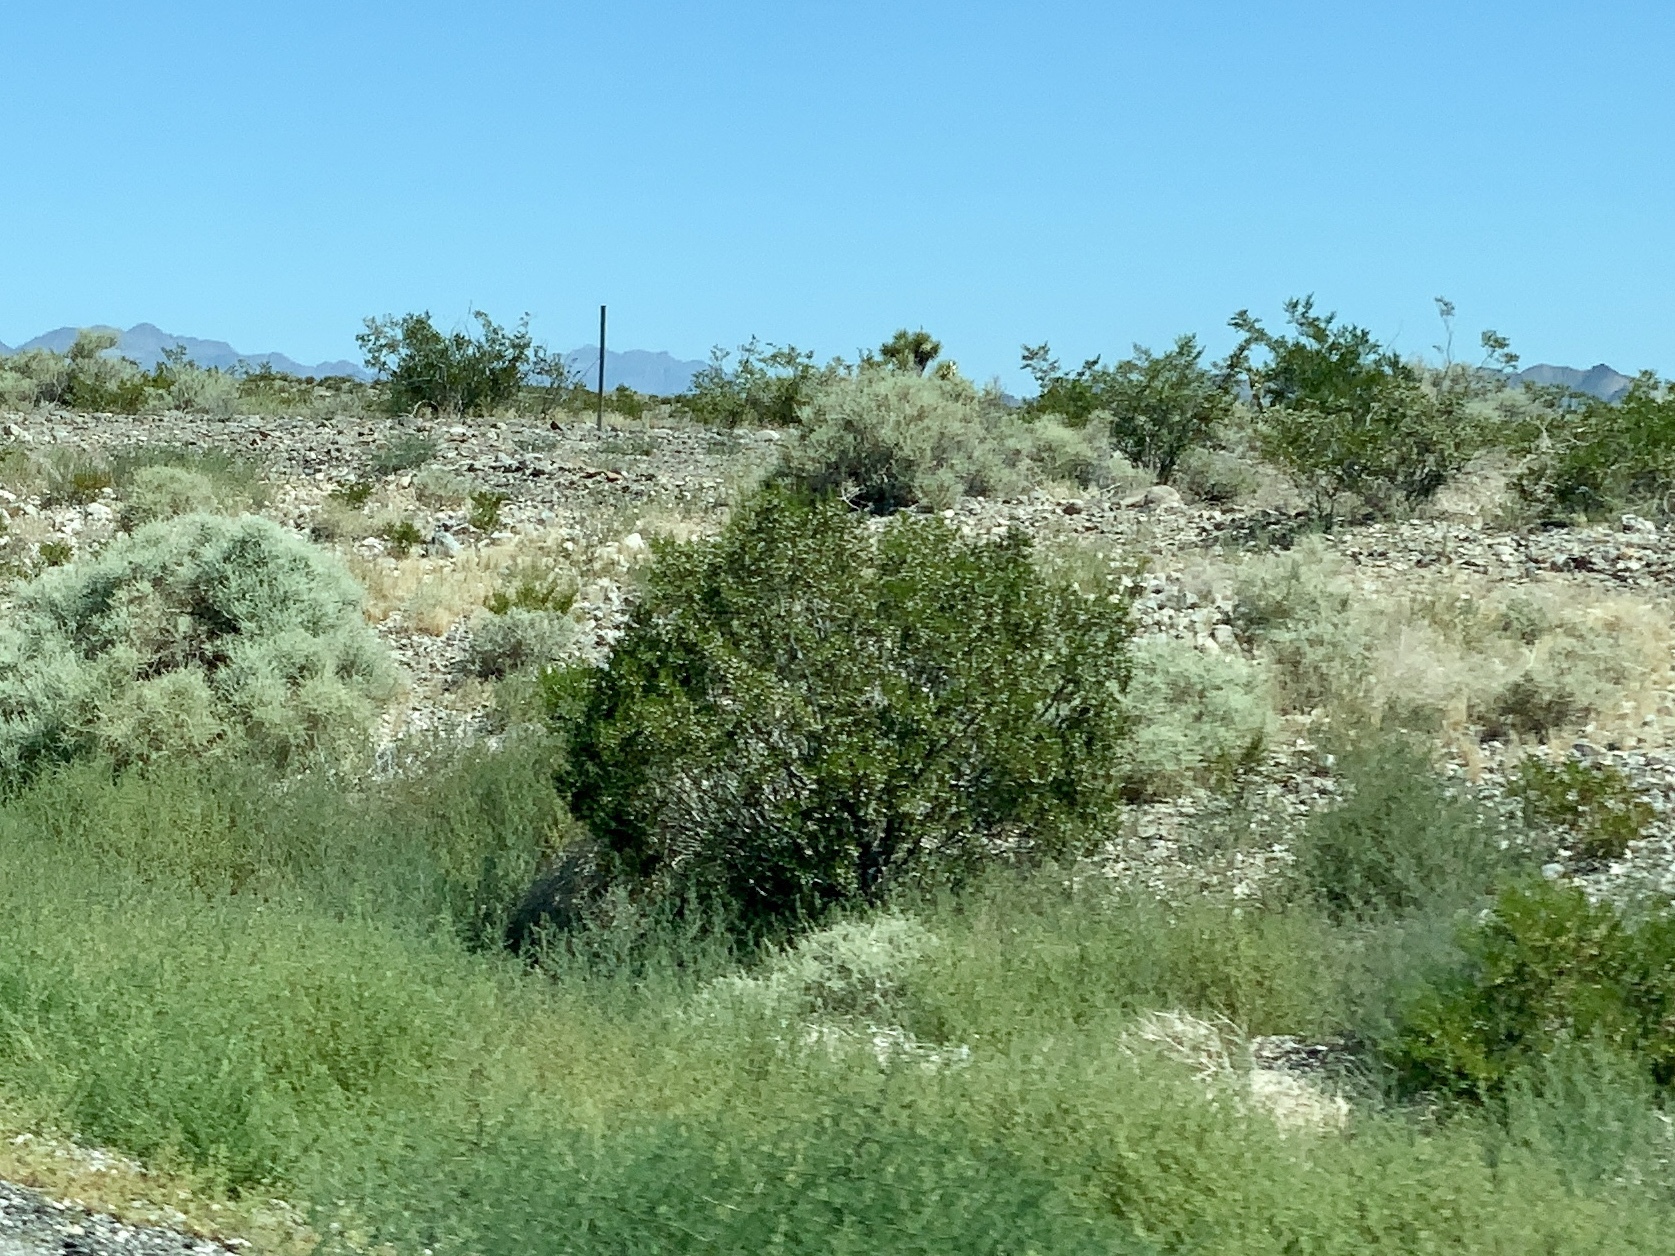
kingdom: Plantae
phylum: Tracheophyta
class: Magnoliopsida
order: Zygophyllales
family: Zygophyllaceae
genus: Larrea
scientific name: Larrea tridentata
